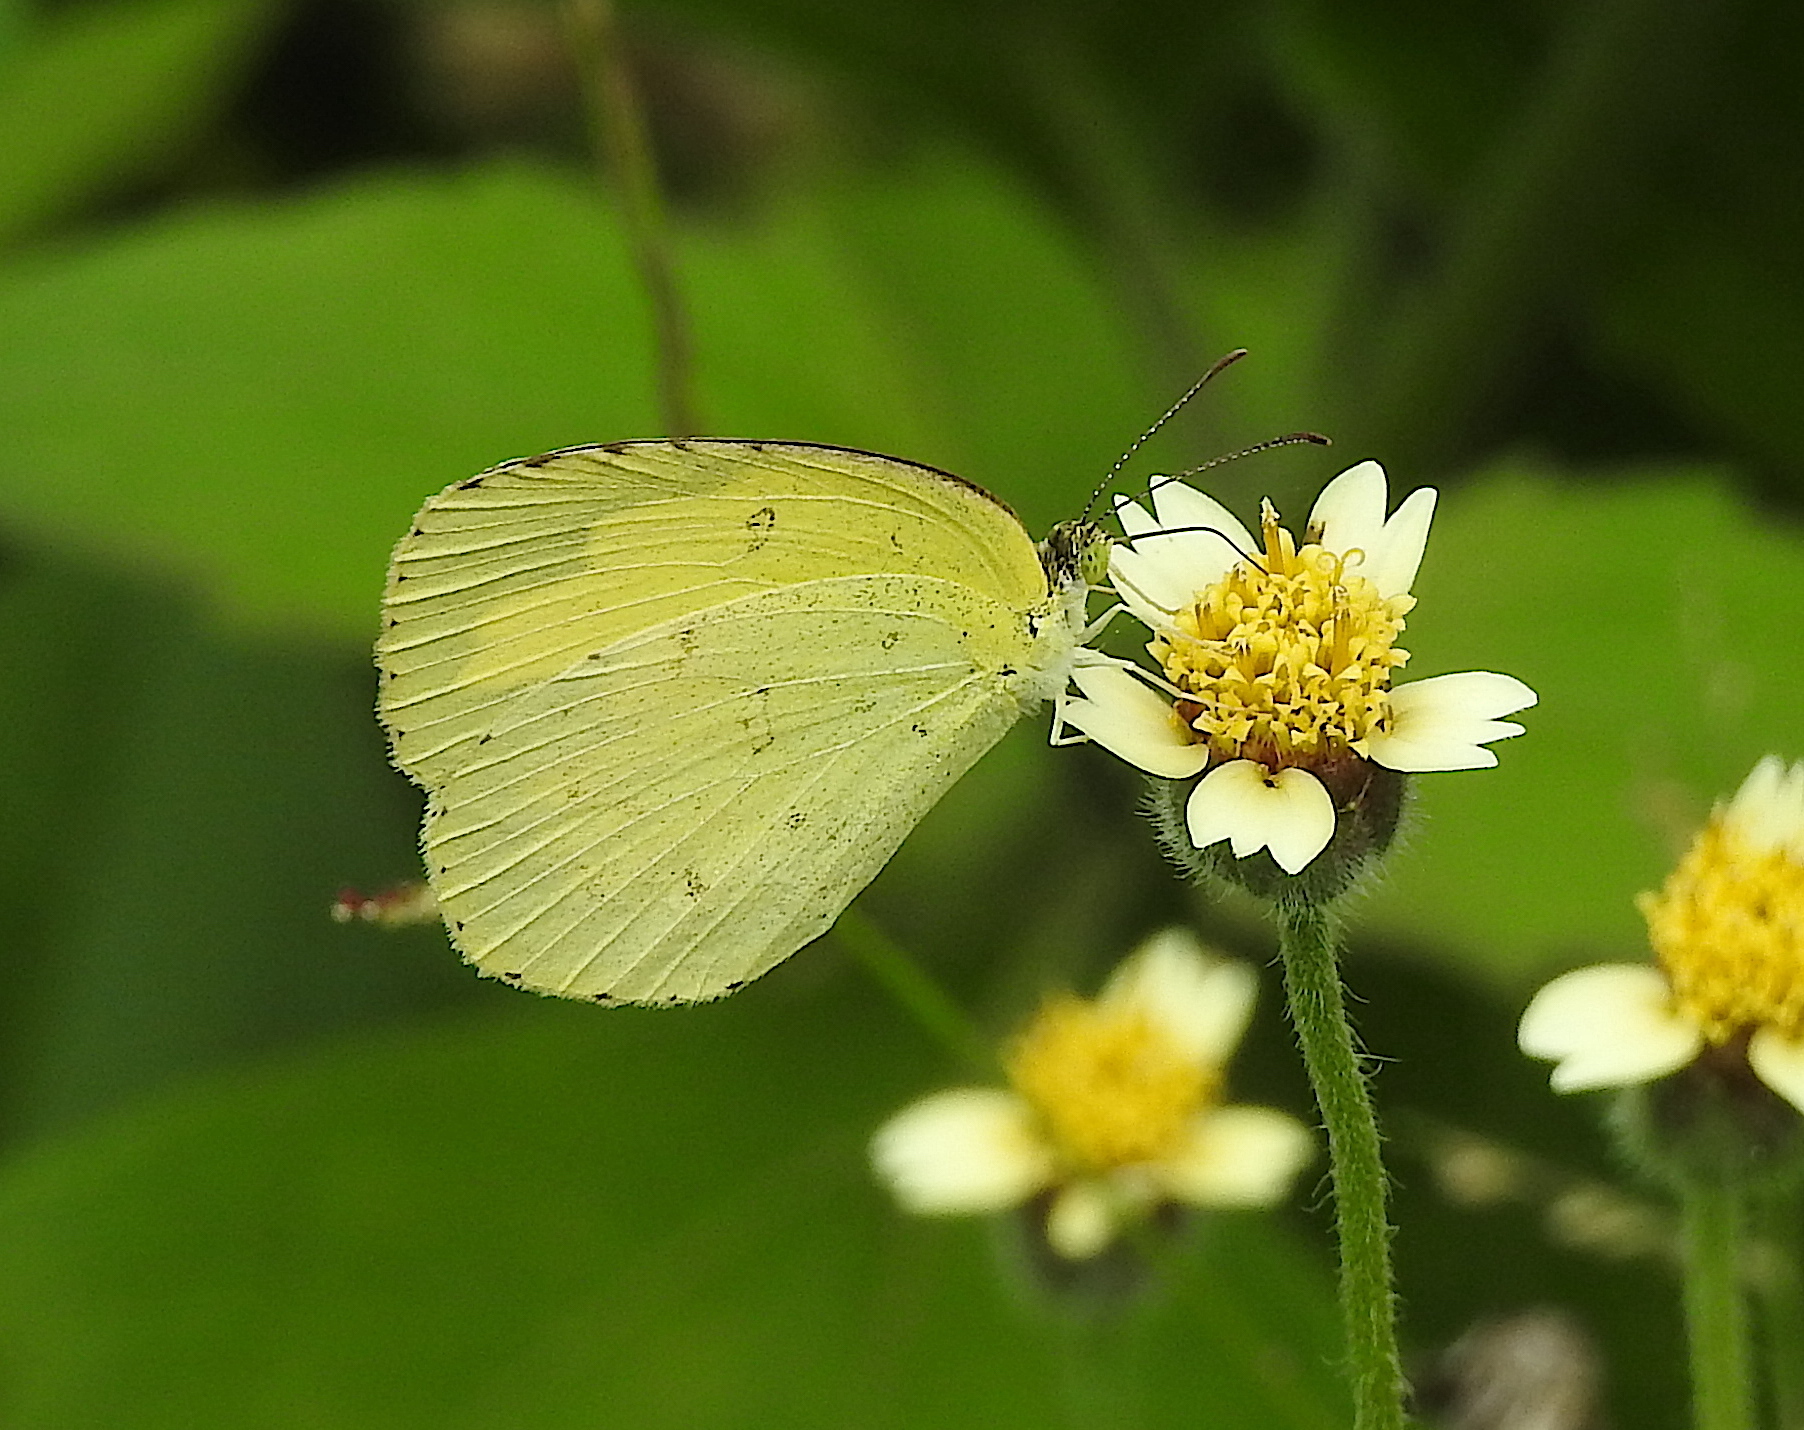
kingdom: Animalia
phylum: Arthropoda
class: Insecta
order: Lepidoptera
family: Pieridae
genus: Eurema
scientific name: Eurema hecabe
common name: Pale grass yellow
